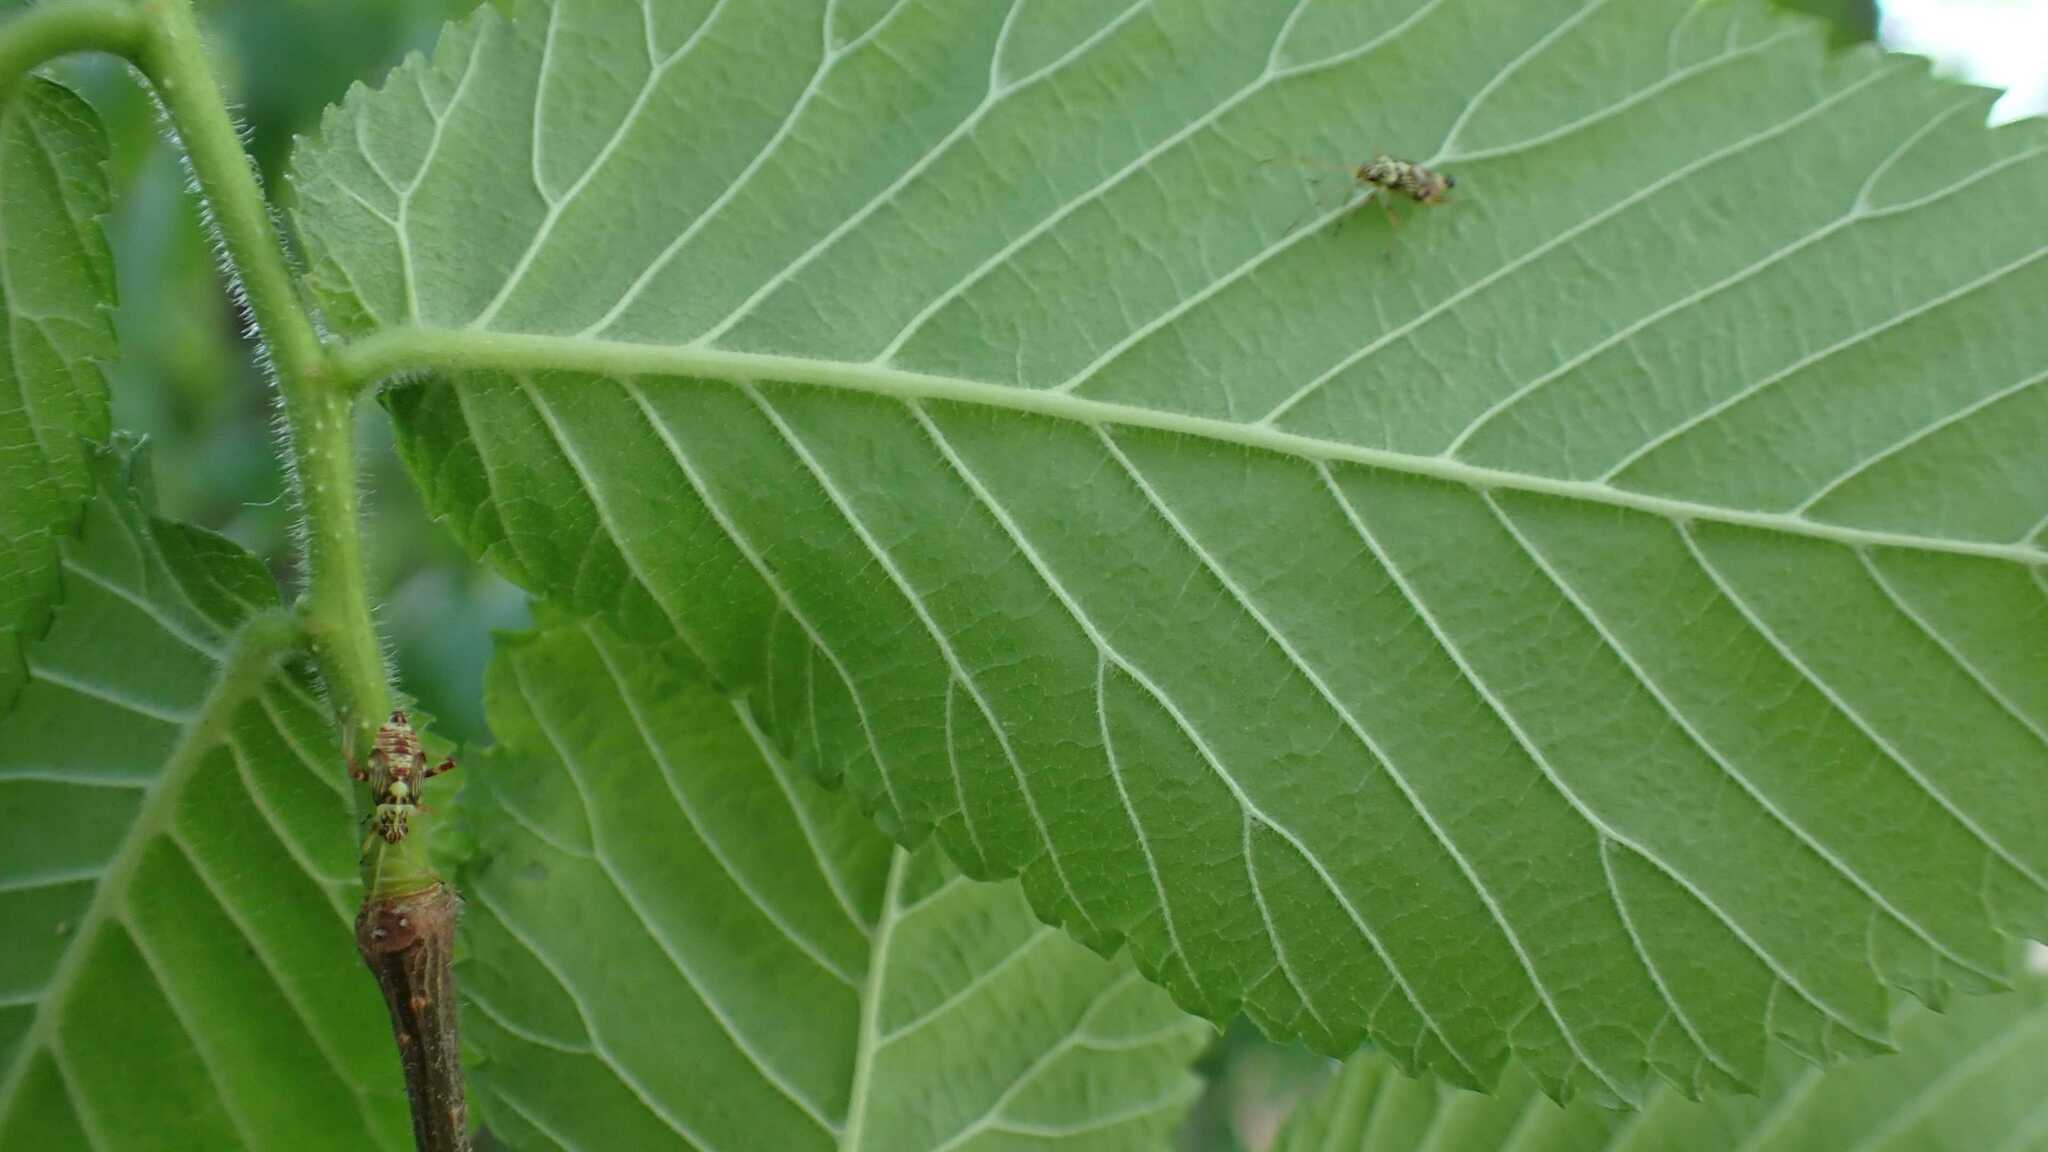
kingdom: Animalia
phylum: Arthropoda
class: Insecta
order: Hemiptera
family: Miridae
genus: Rhabdomiris
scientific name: Rhabdomiris striatellus
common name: Plant bug
